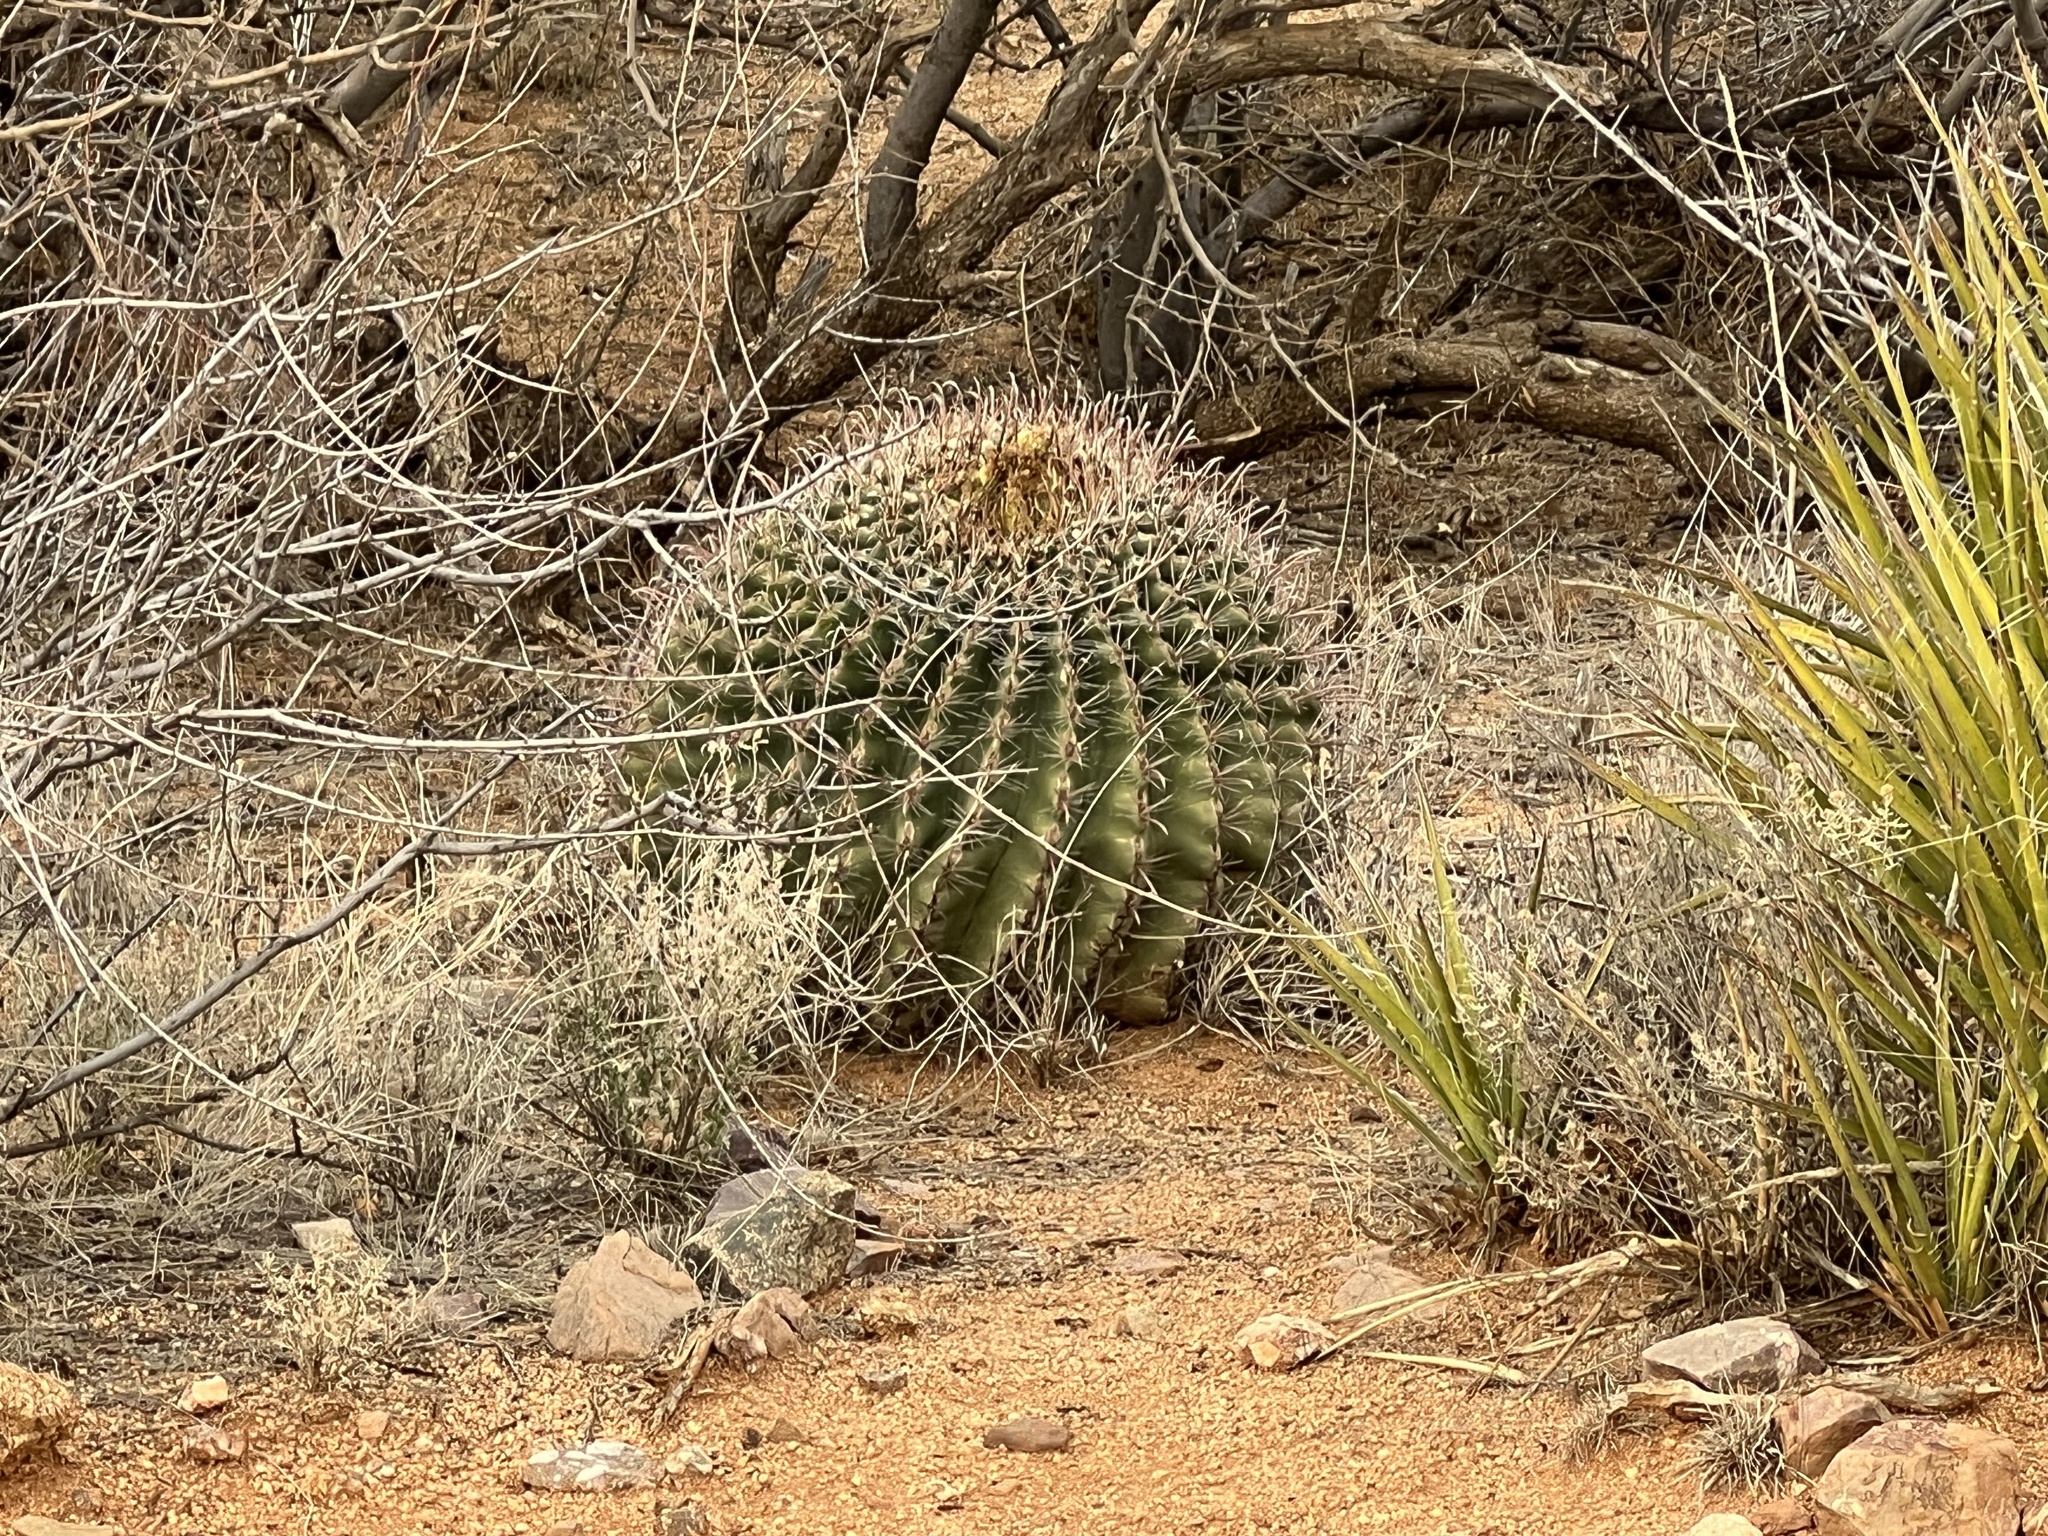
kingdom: Plantae
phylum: Tracheophyta
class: Magnoliopsida
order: Caryophyllales
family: Cactaceae
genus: Ferocactus
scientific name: Ferocactus wislizeni
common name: Candy barrel cactus
